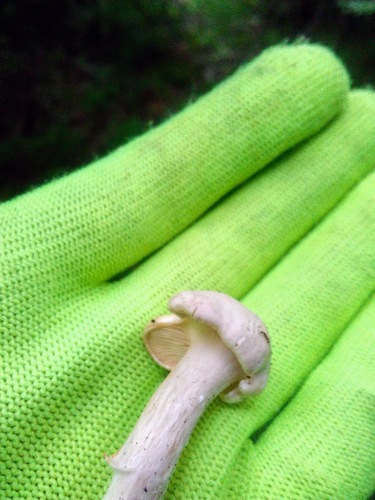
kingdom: Fungi
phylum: Basidiomycota
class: Agaricomycetes
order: Agaricales
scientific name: Agaricales
